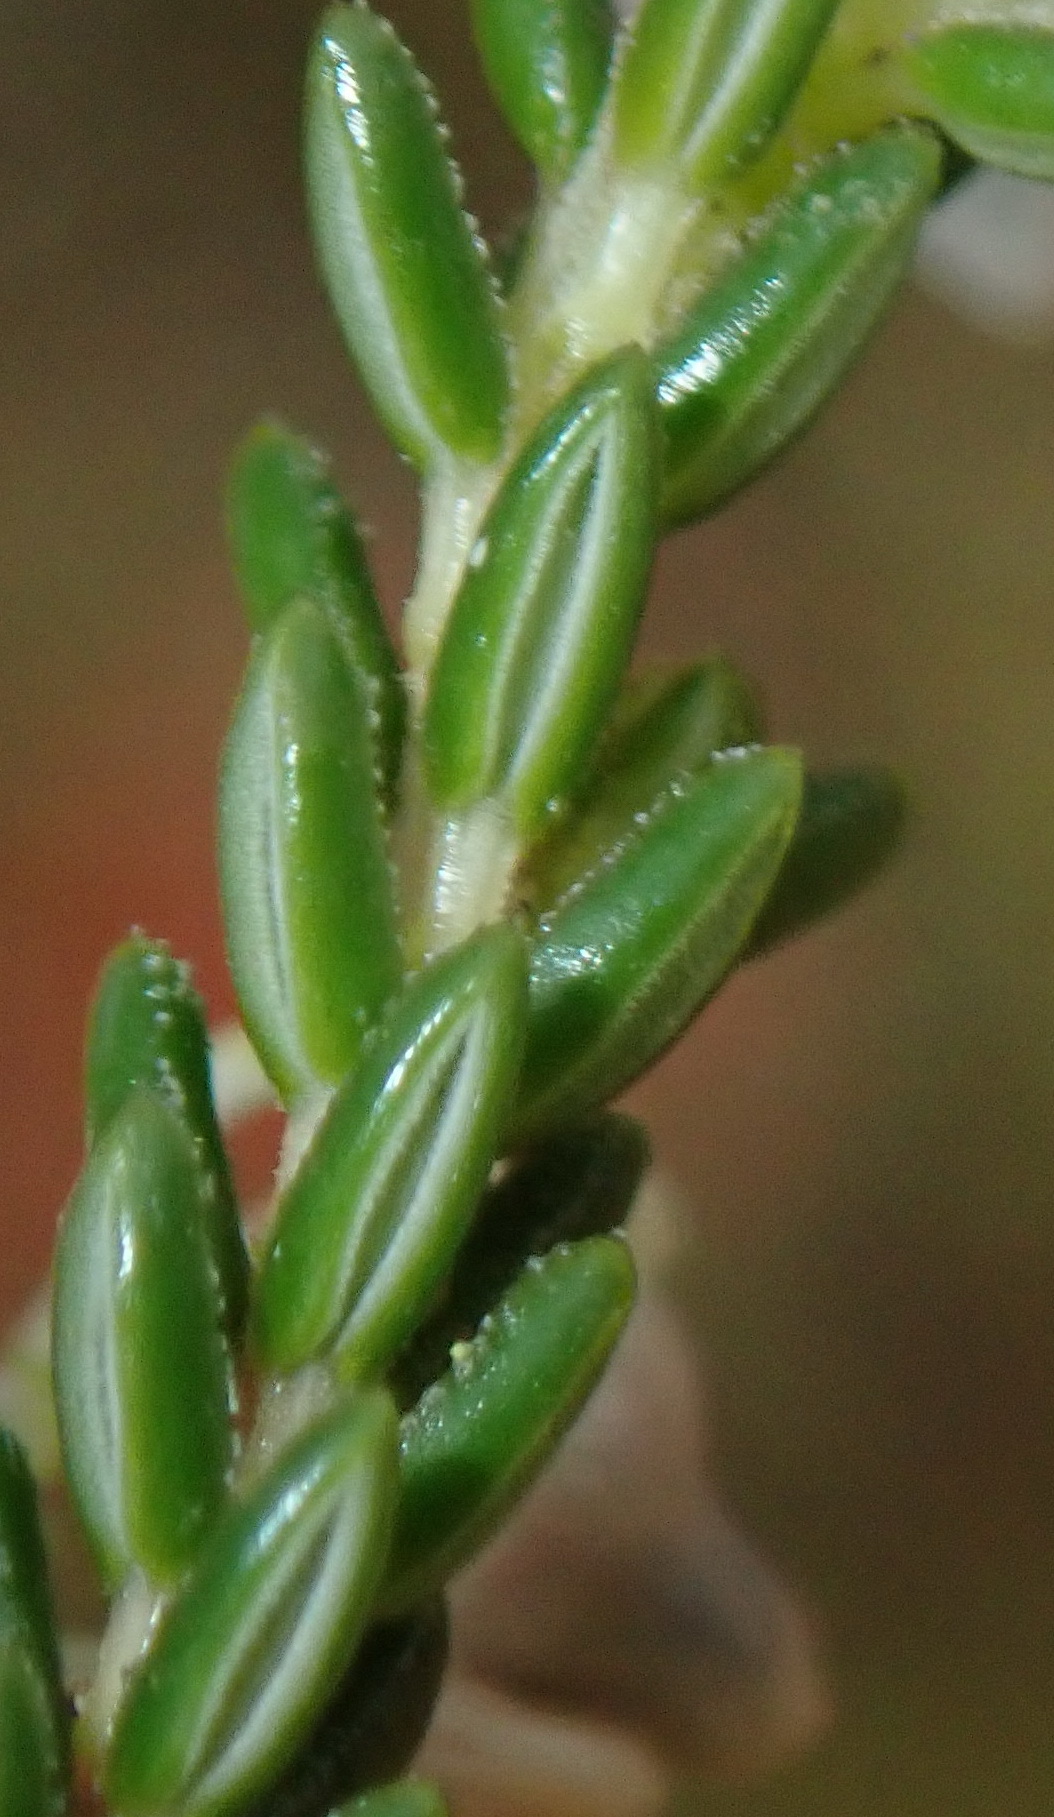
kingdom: Plantae
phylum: Tracheophyta
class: Magnoliopsida
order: Ericales
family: Ericaceae
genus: Erica
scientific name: Erica glomiflora
